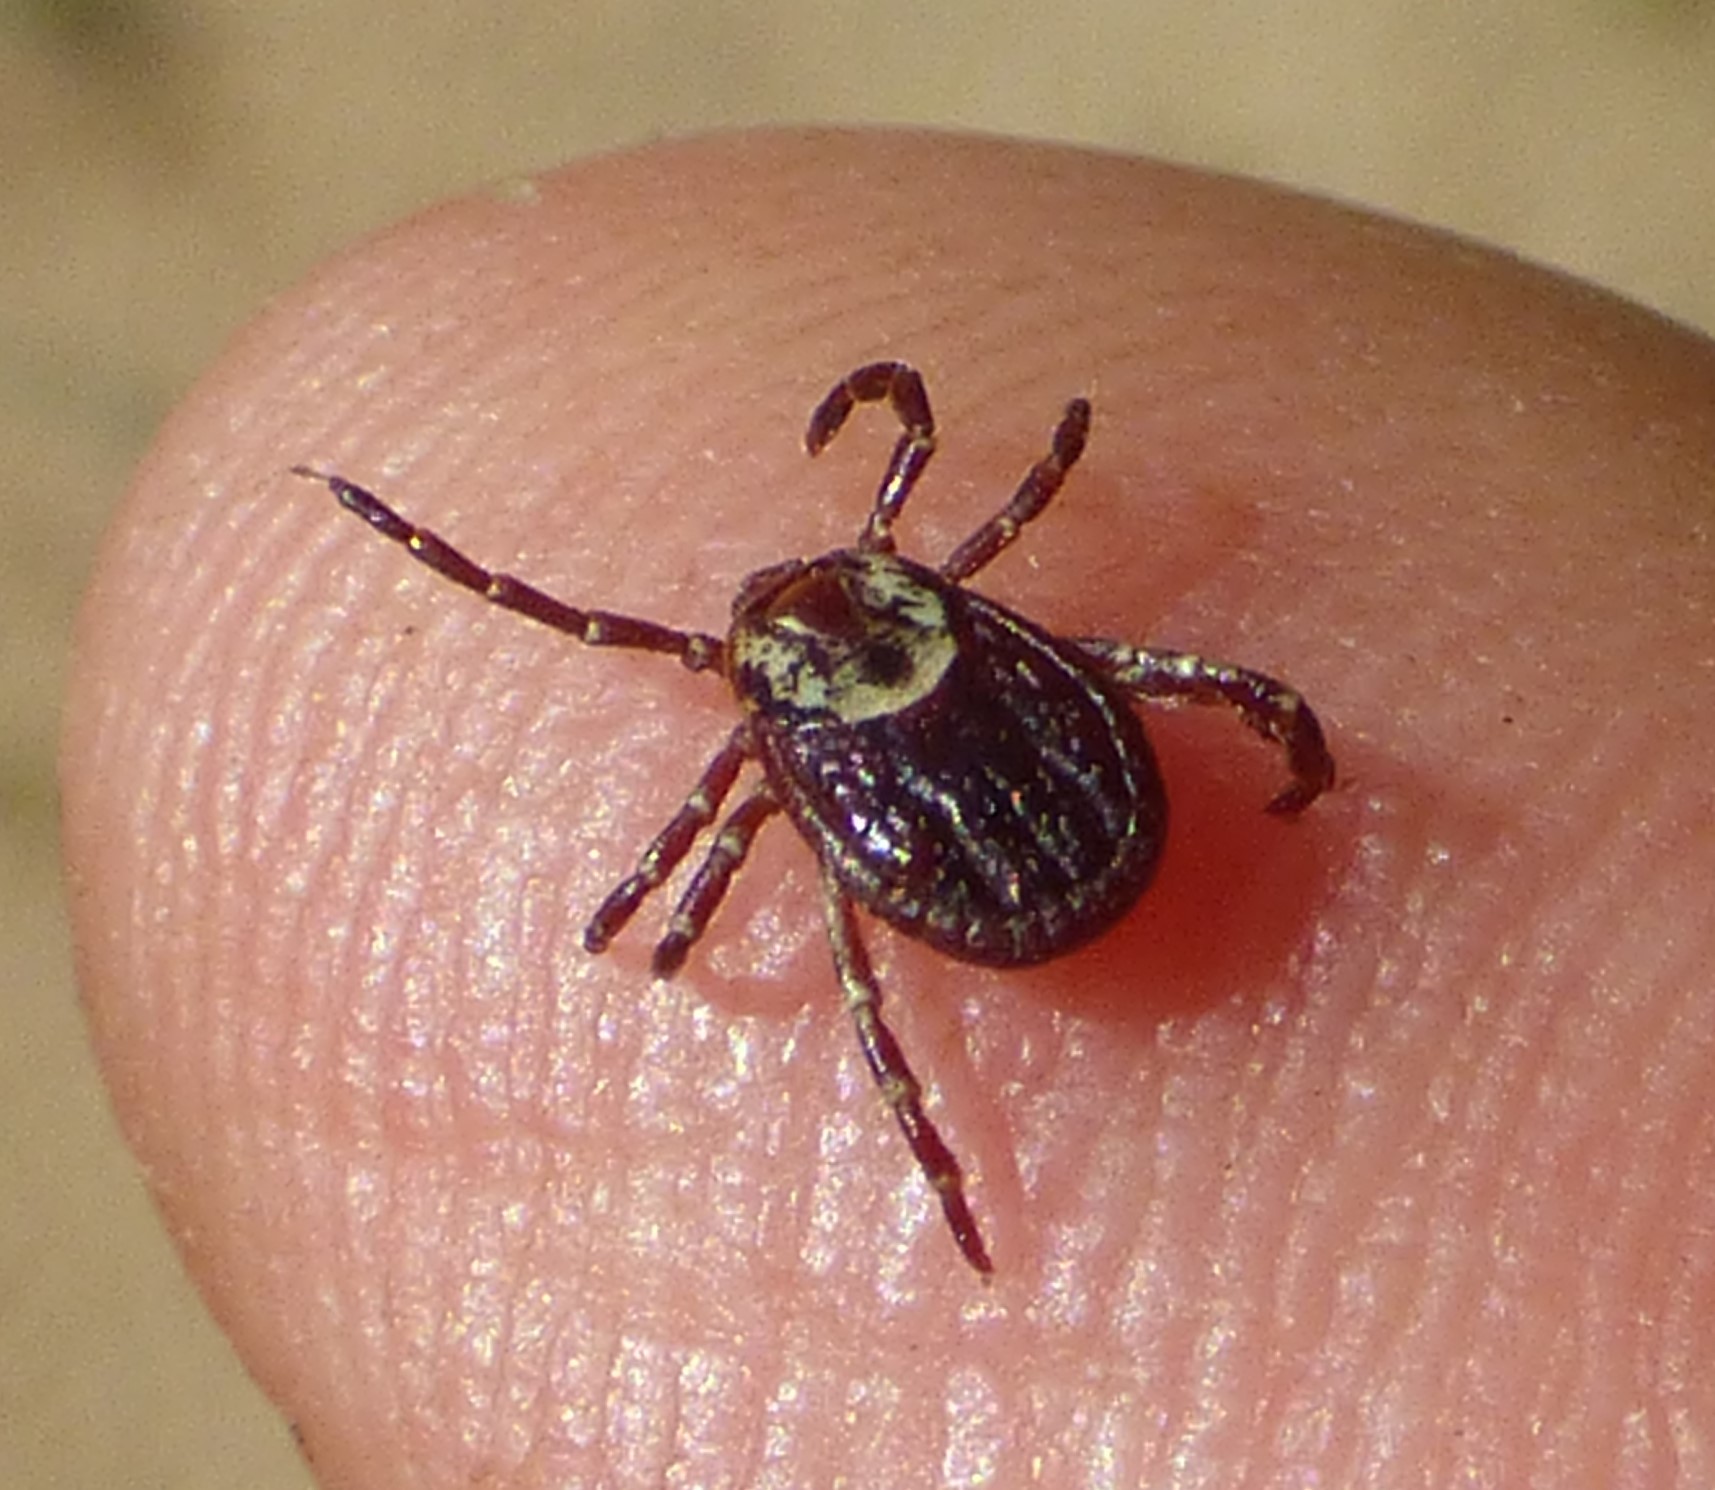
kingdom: Animalia
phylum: Arthropoda
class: Arachnida
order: Ixodida
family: Ixodidae
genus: Dermacentor
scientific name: Dermacentor variabilis
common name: American dog tick
